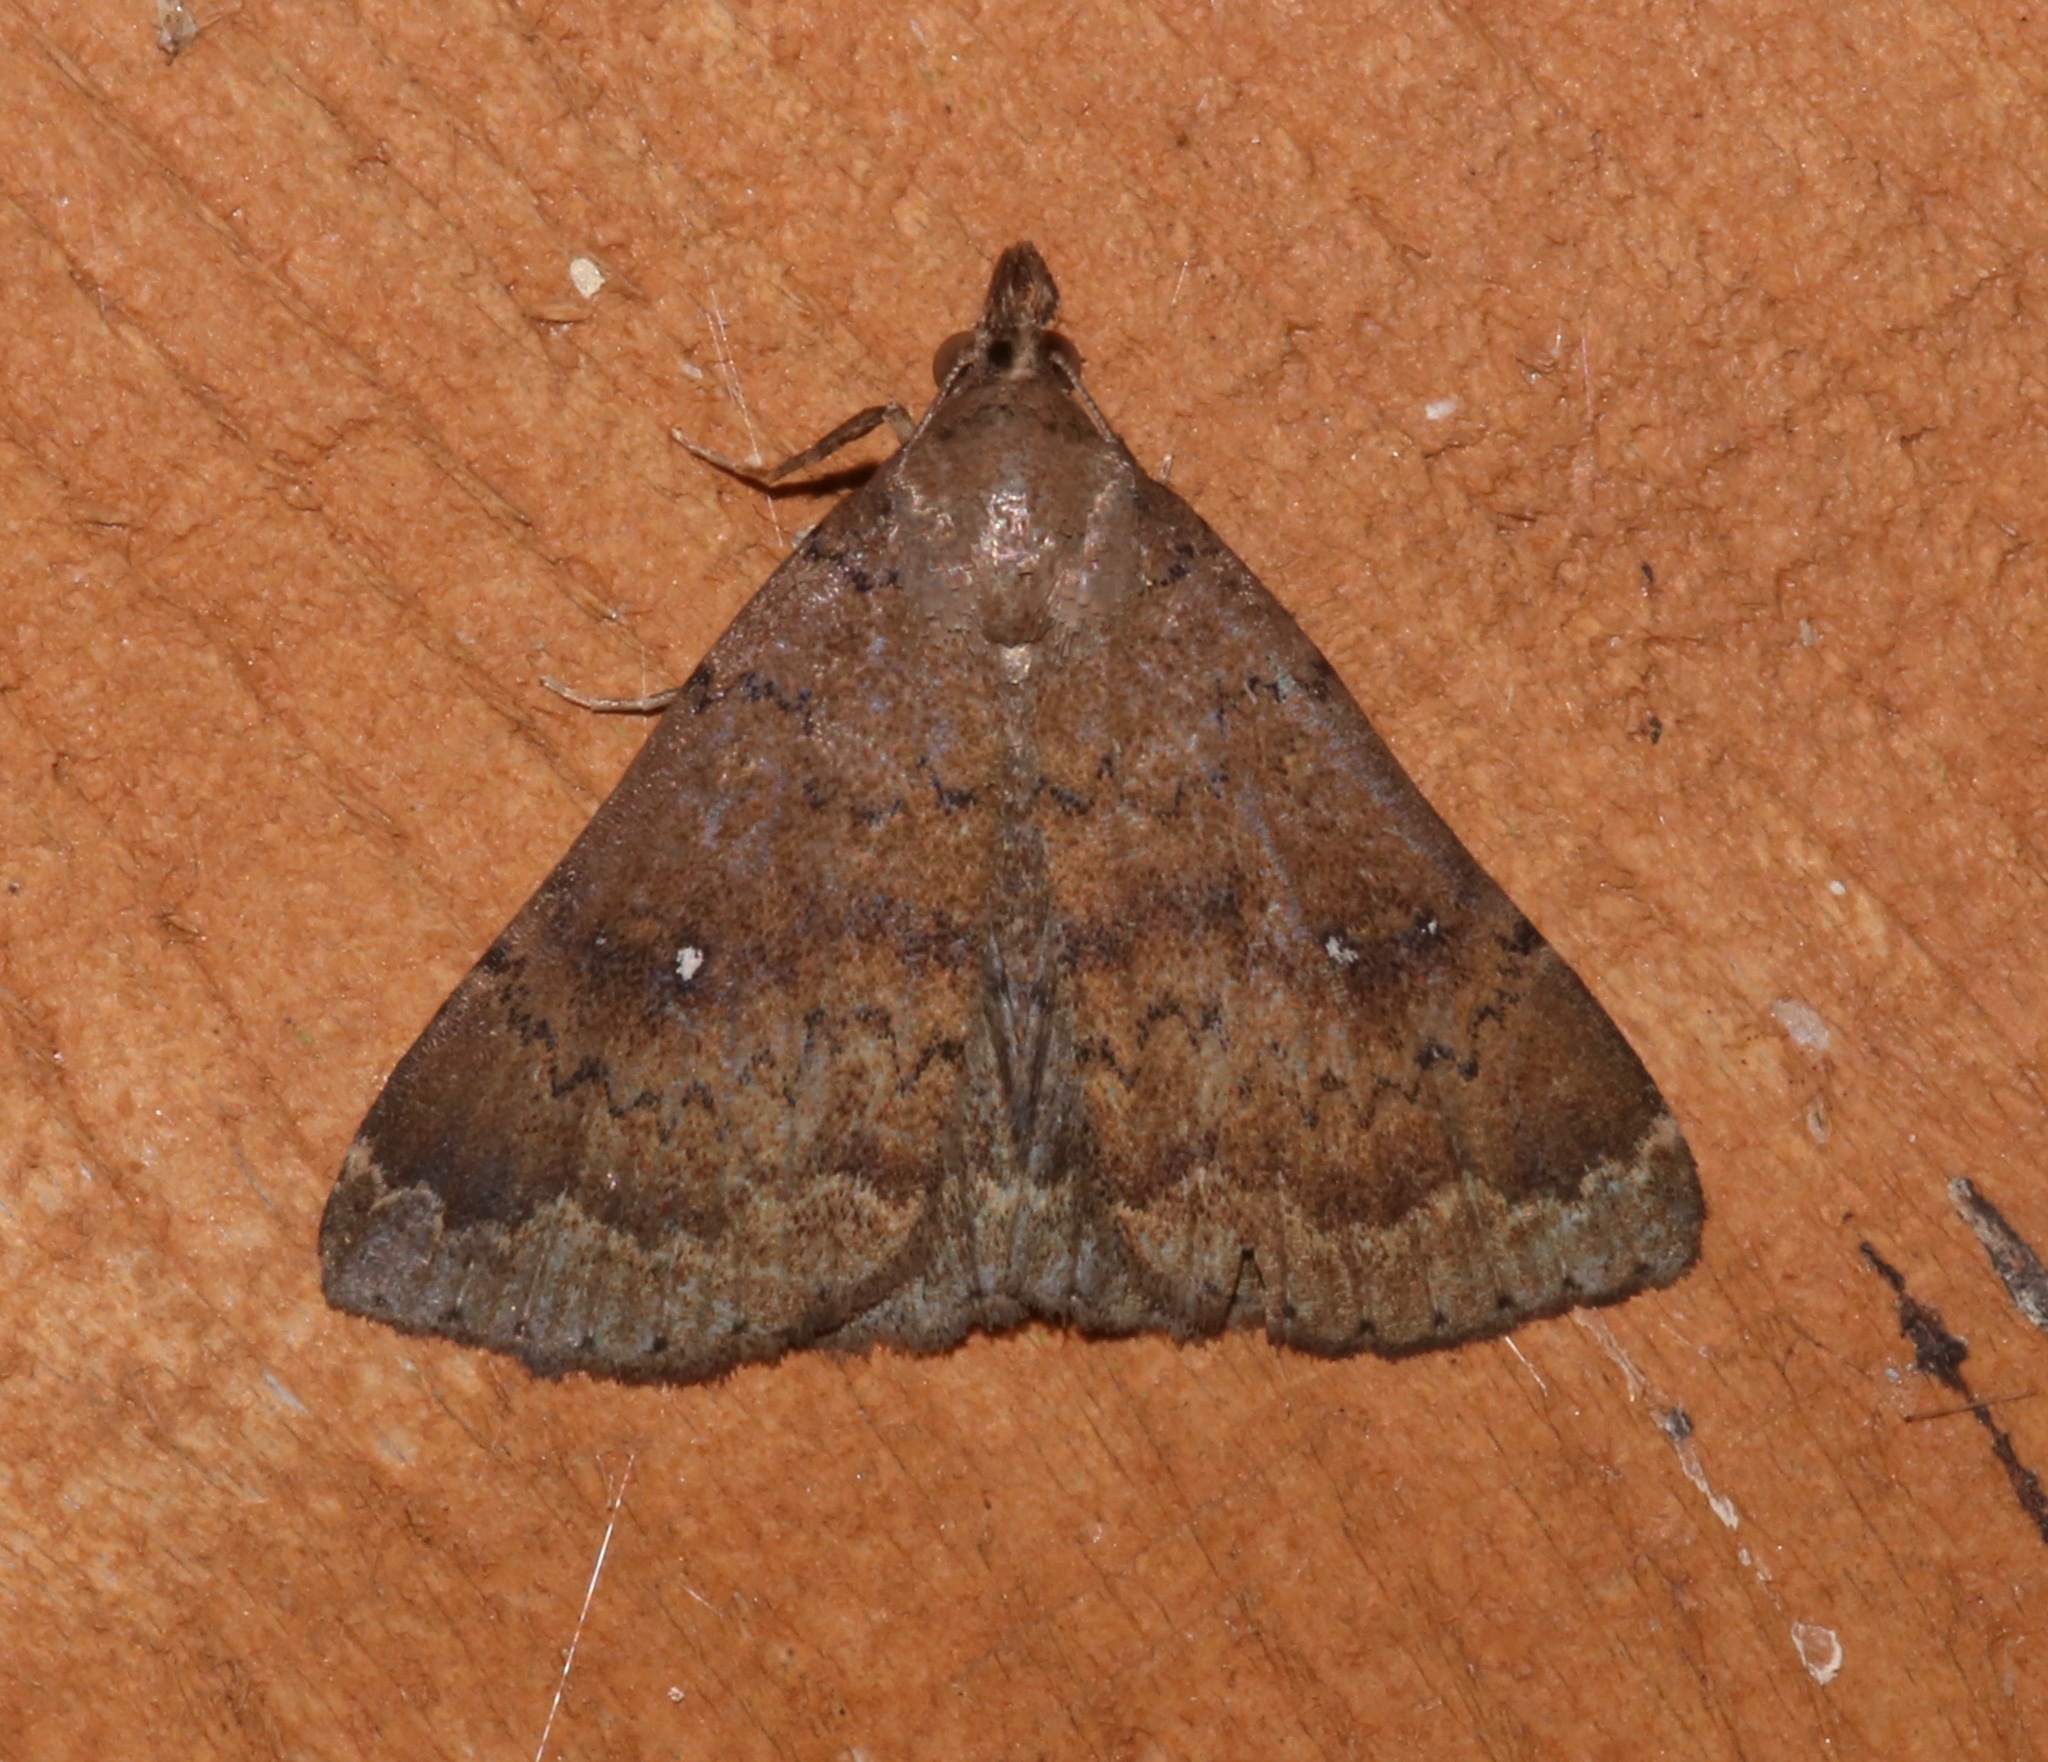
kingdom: Animalia
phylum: Arthropoda
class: Insecta
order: Lepidoptera
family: Erebidae
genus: Hypenula
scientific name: Hypenula cacuminalis
